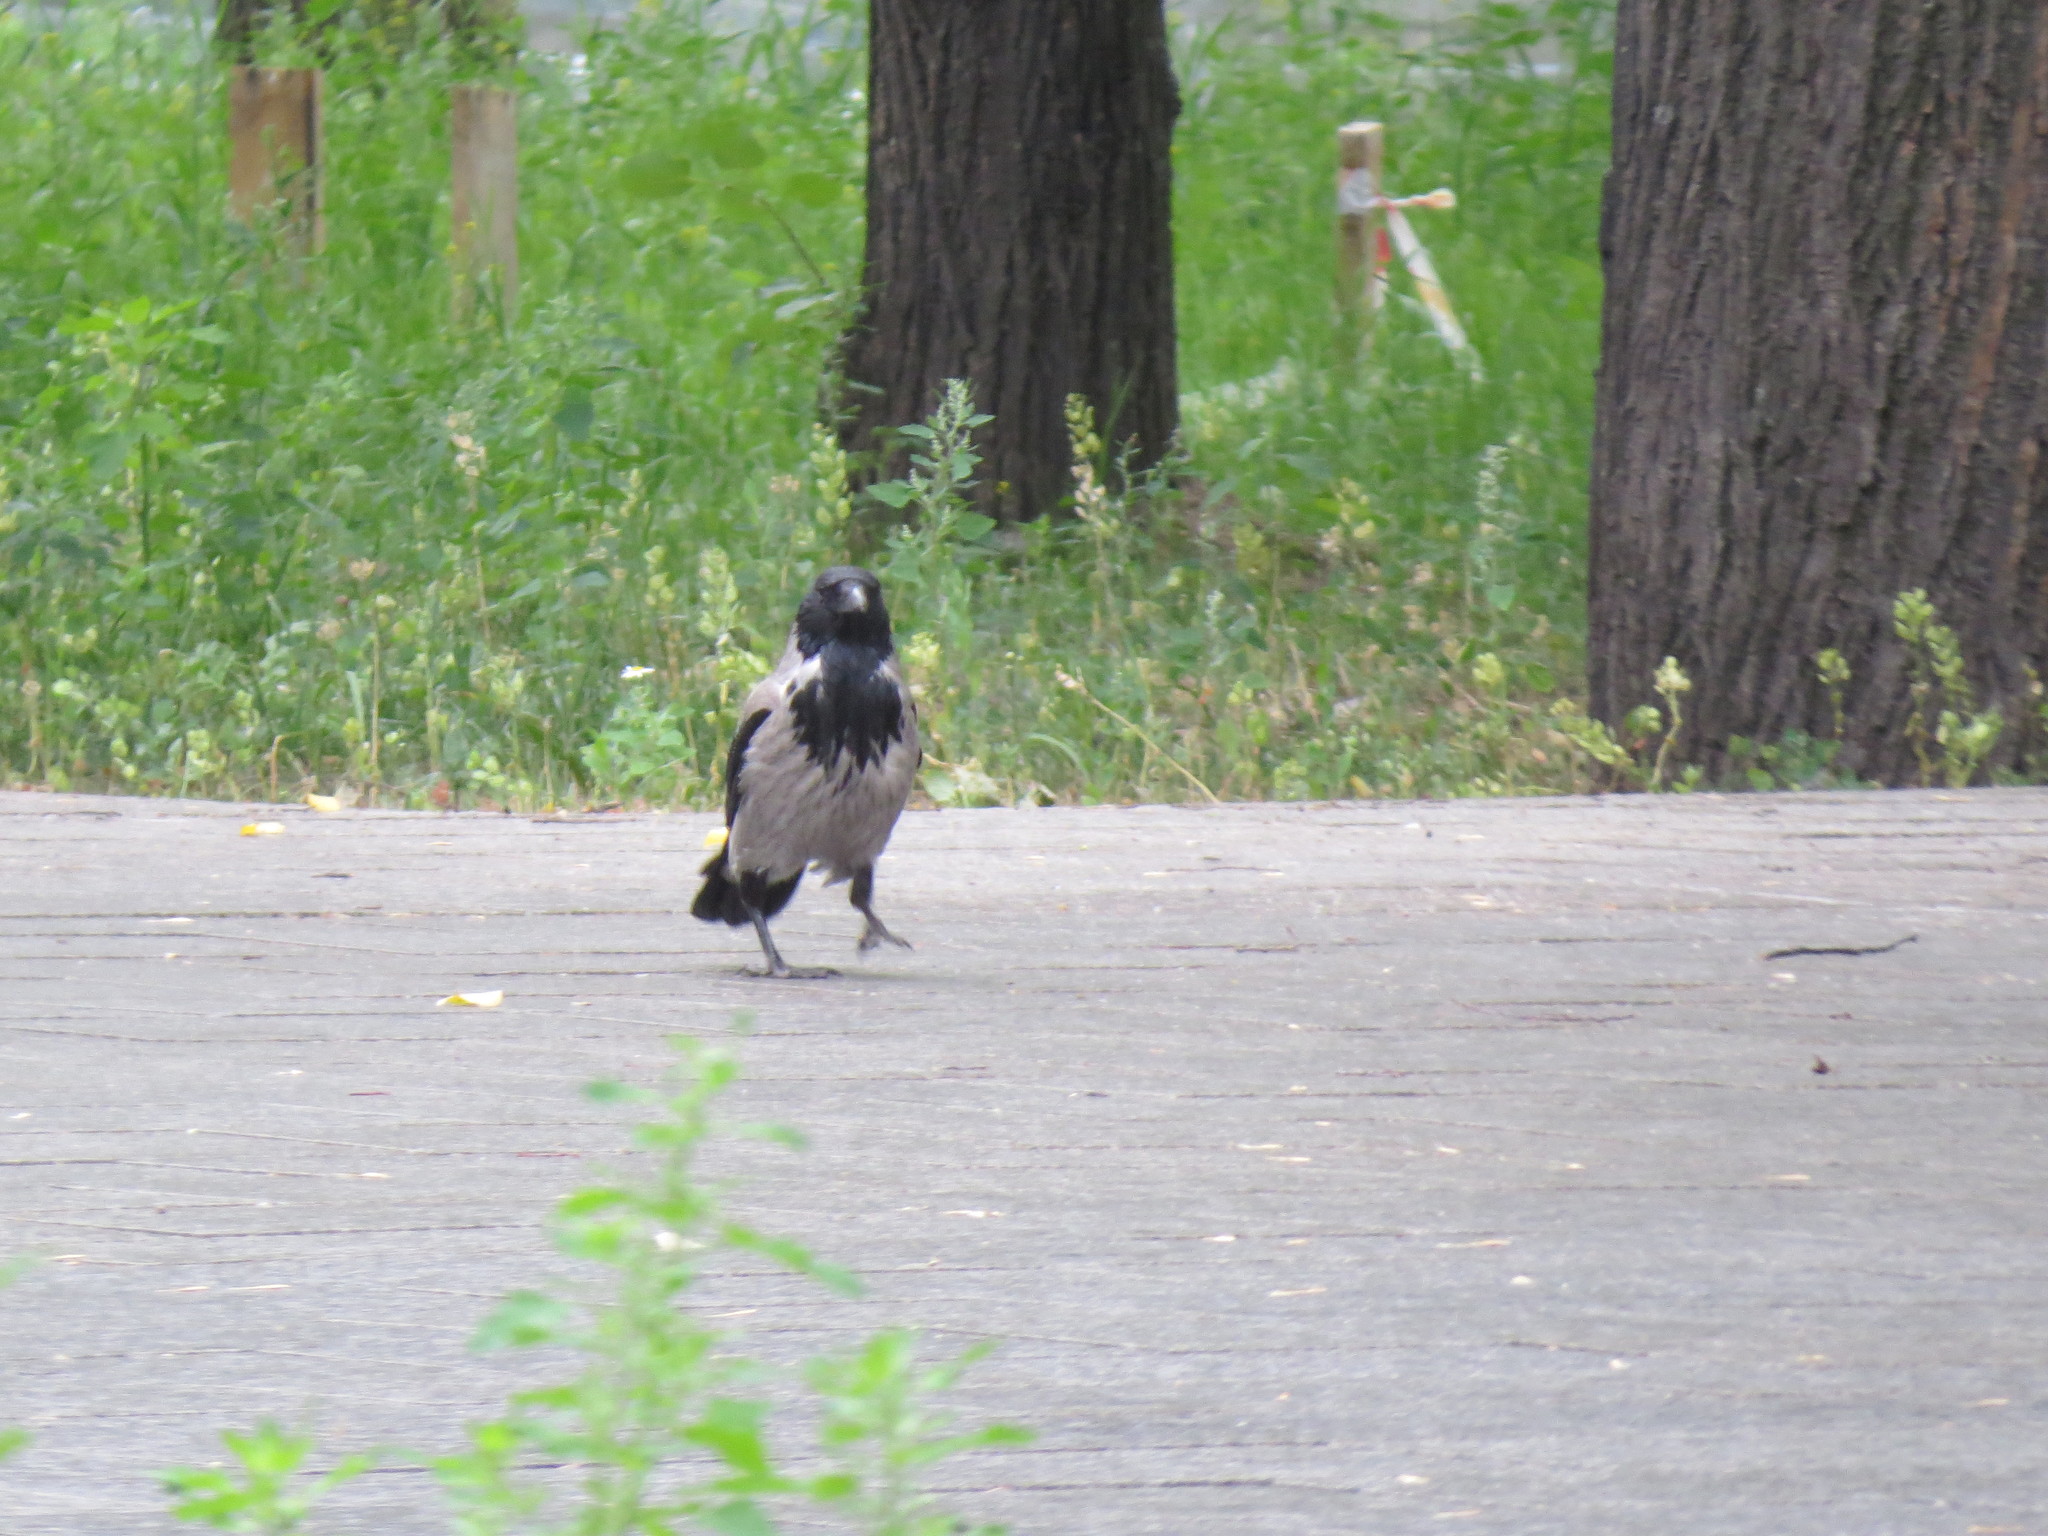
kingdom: Animalia
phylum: Chordata
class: Aves
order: Passeriformes
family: Corvidae
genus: Corvus
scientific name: Corvus cornix
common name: Hooded crow
